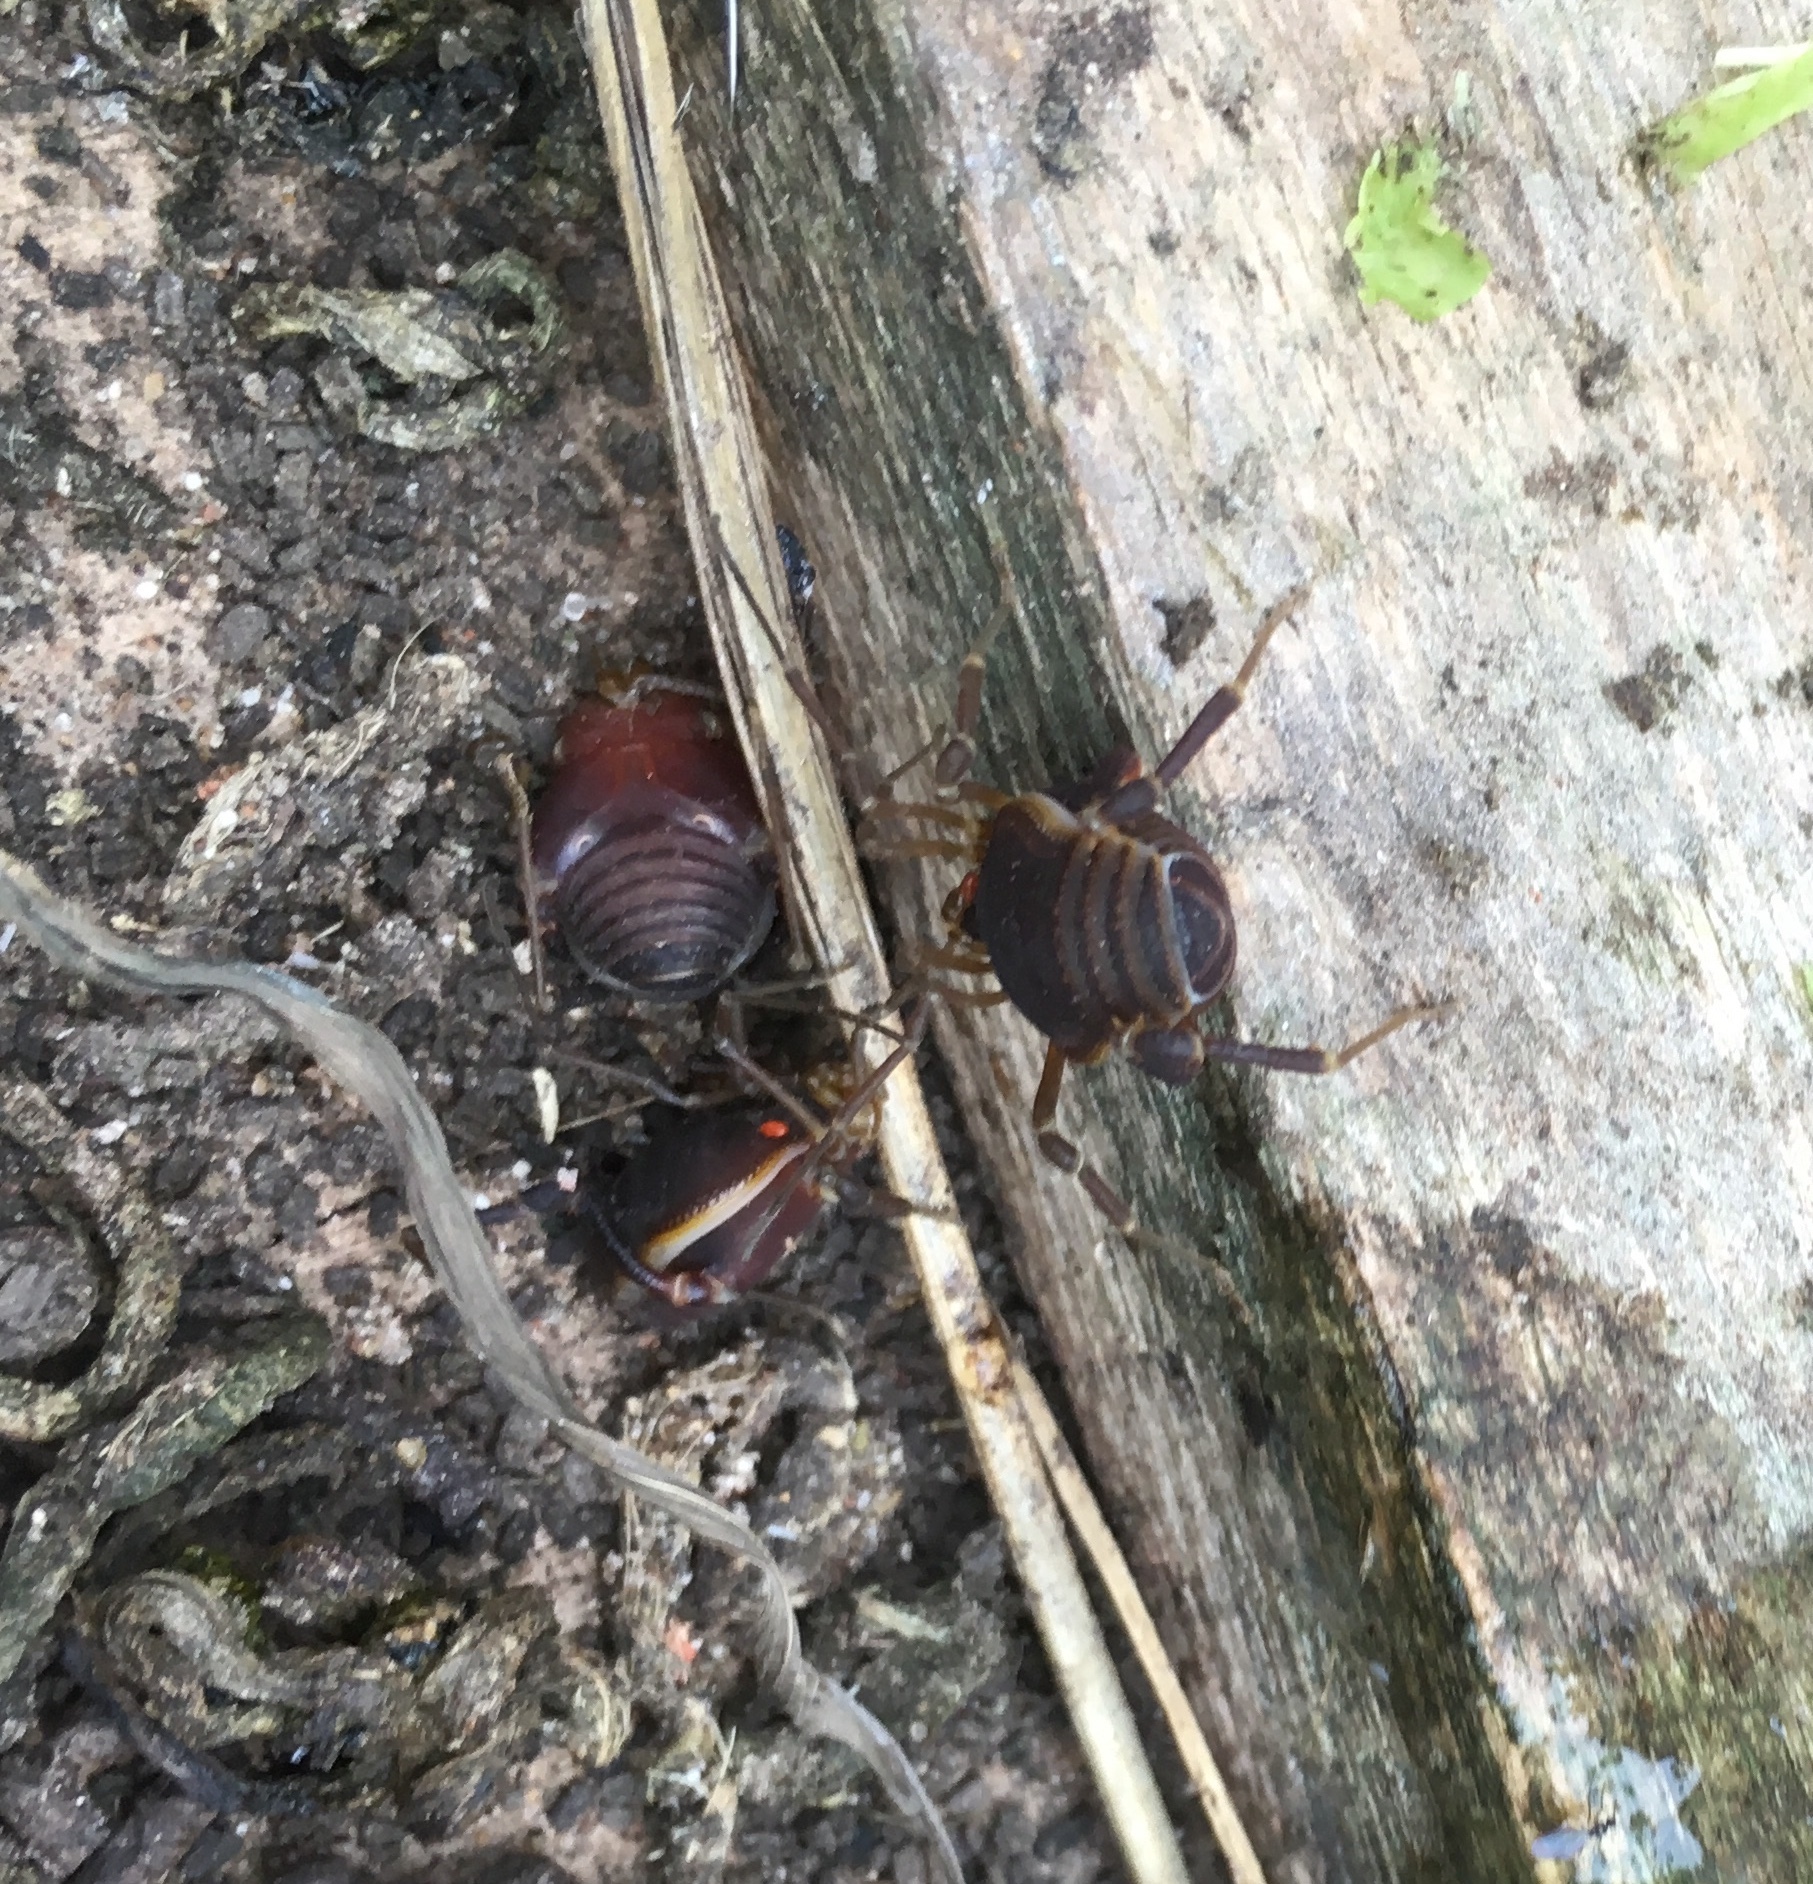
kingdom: Animalia
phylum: Arthropoda
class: Arachnida
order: Opiliones
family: Gonyleptidae
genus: Acanthopachylus
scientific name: Acanthopachylus robustus
